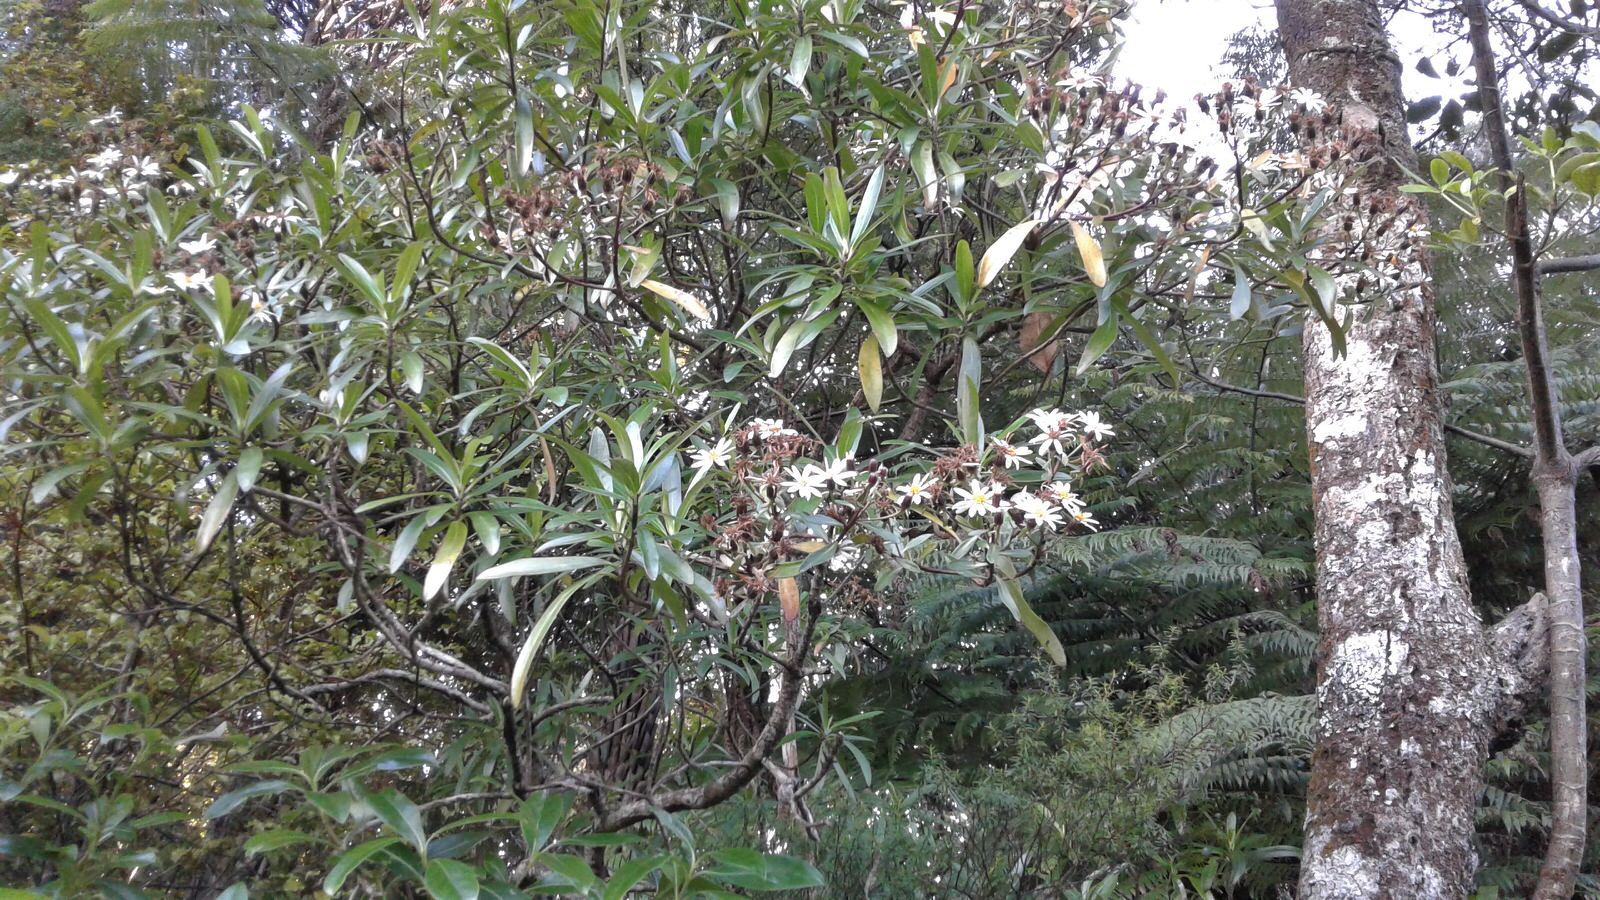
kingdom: Plantae
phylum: Tracheophyta
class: Magnoliopsida
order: Asterales
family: Asteraceae
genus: Brachyglottis
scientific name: Brachyglottis kirkii
